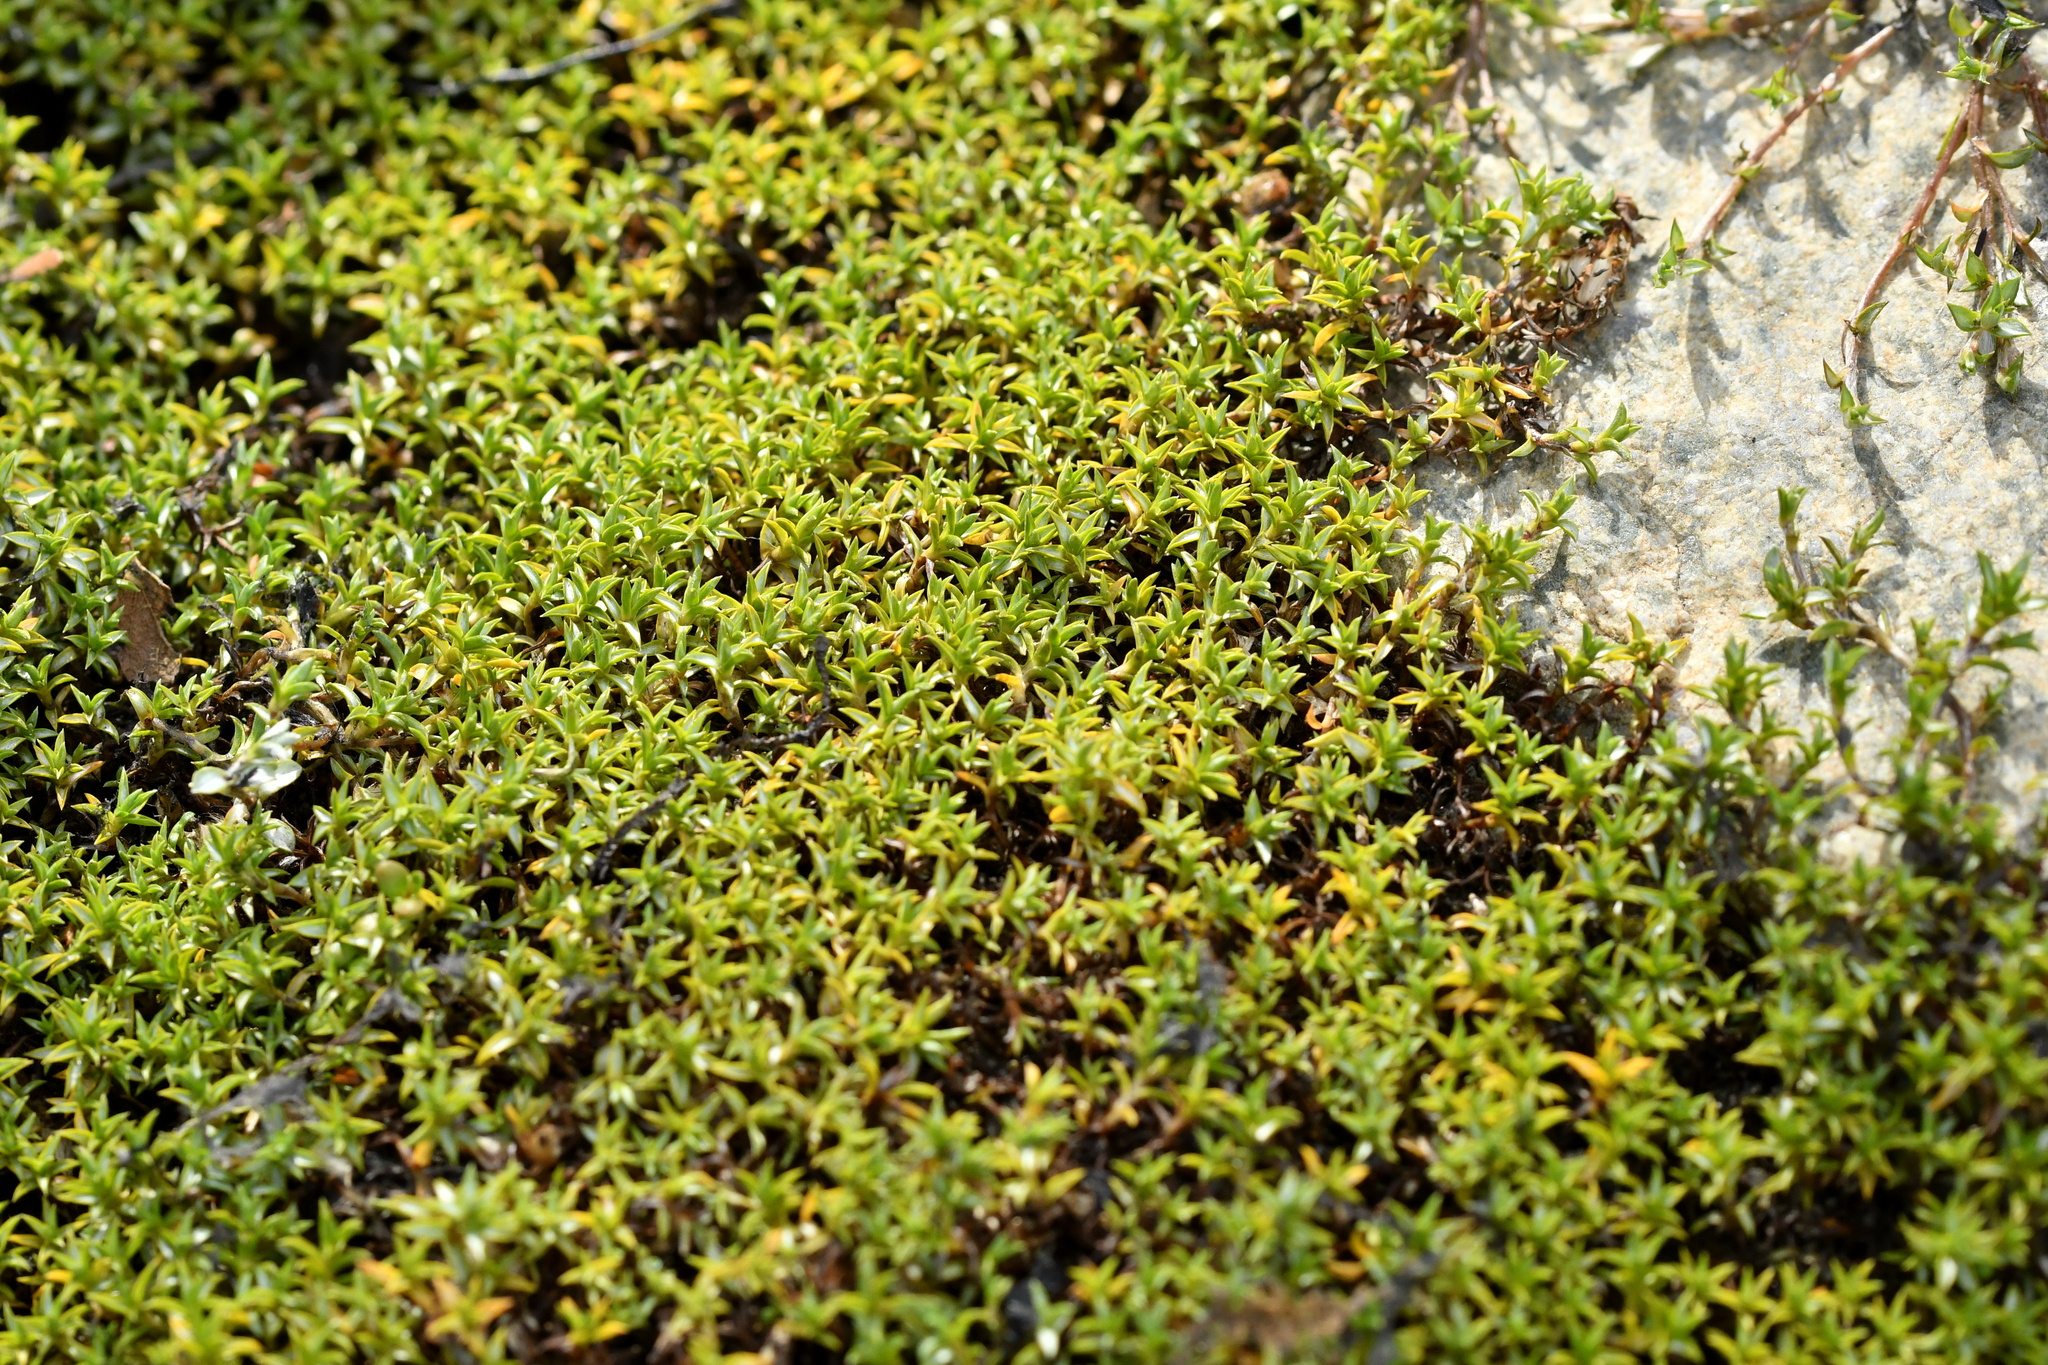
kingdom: Plantae
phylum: Tracheophyta
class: Magnoliopsida
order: Asterales
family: Asteraceae
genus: Raoulia
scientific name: Raoulia tenuicaulis
